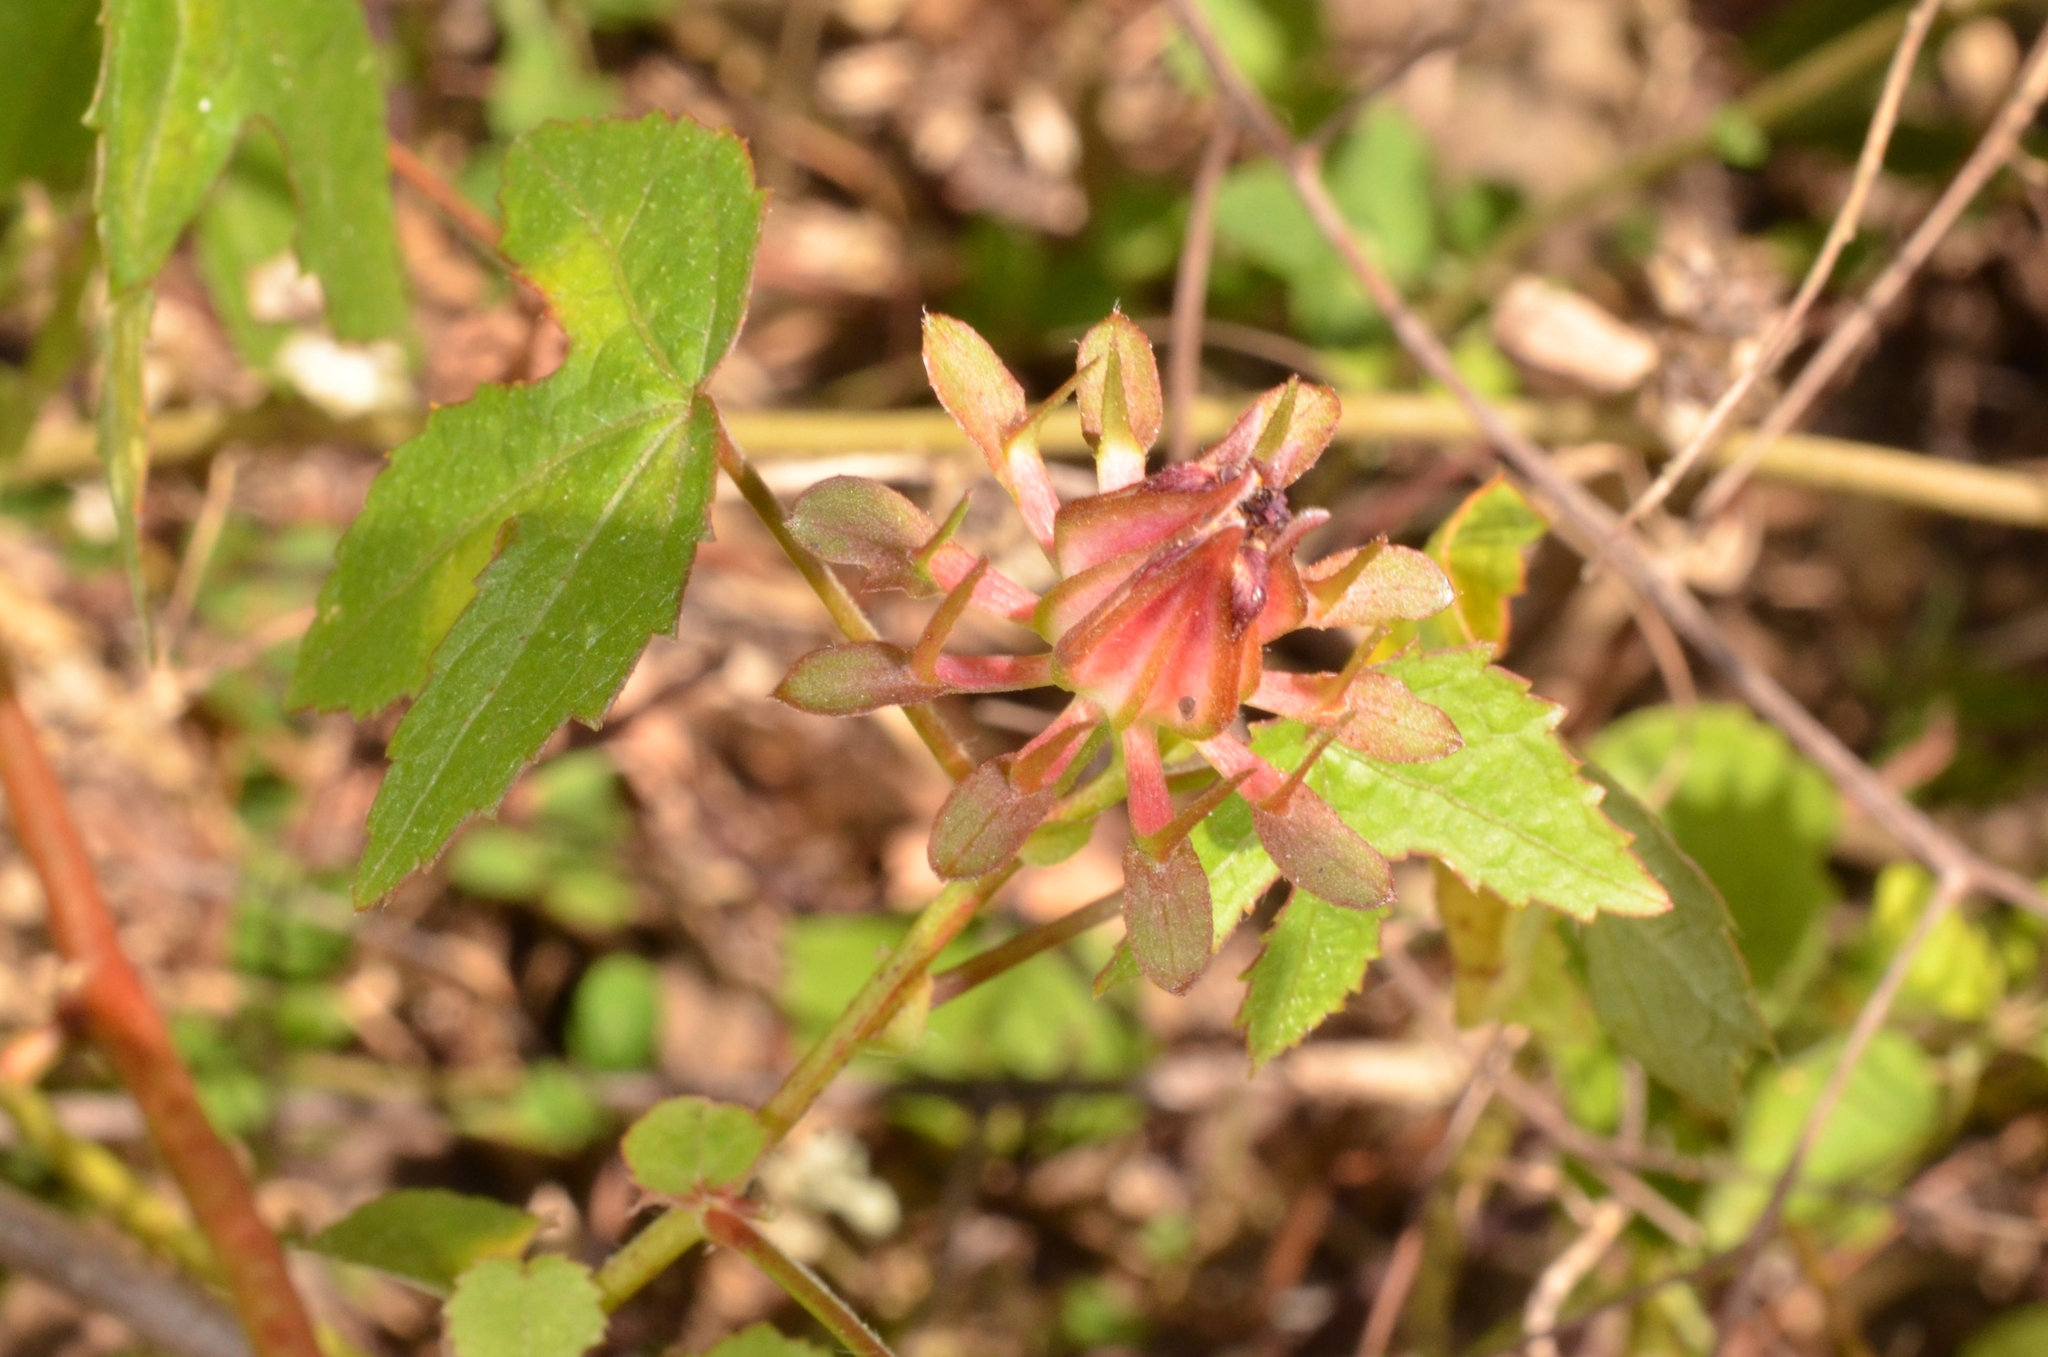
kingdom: Plantae
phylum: Tracheophyta
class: Magnoliopsida
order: Malvales
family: Malvaceae
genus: Hibiscus
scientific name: Hibiscus surattensis
